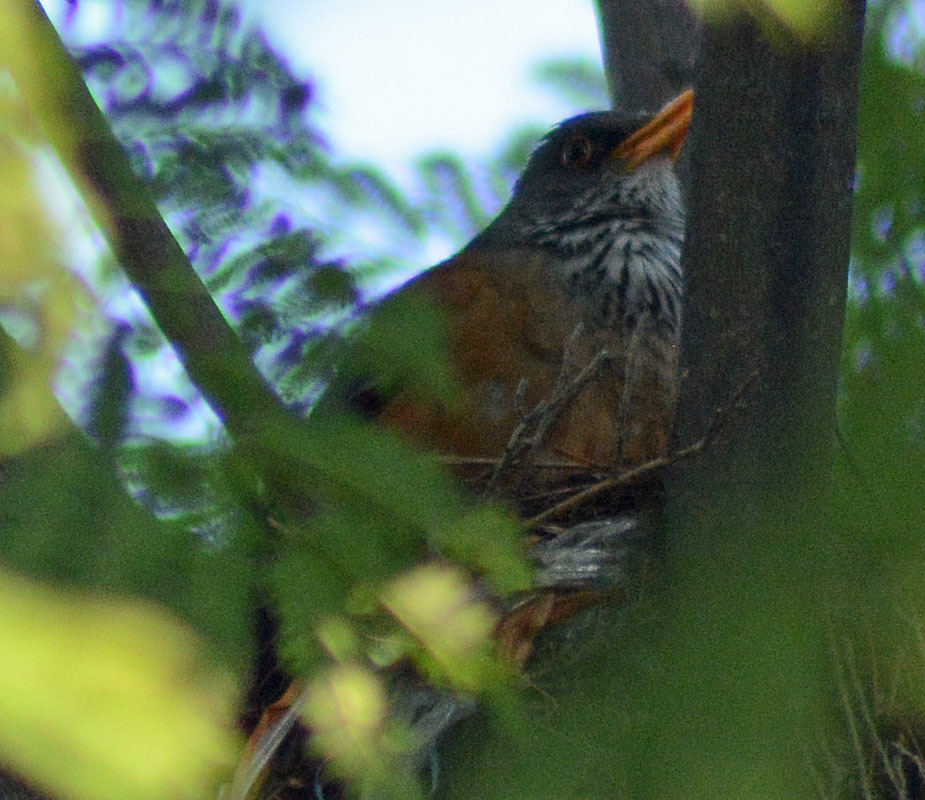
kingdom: Animalia
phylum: Chordata
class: Aves
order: Passeriformes
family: Turdidae
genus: Turdus
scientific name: Turdus rufopalliatus
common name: Rufous-backed robin
